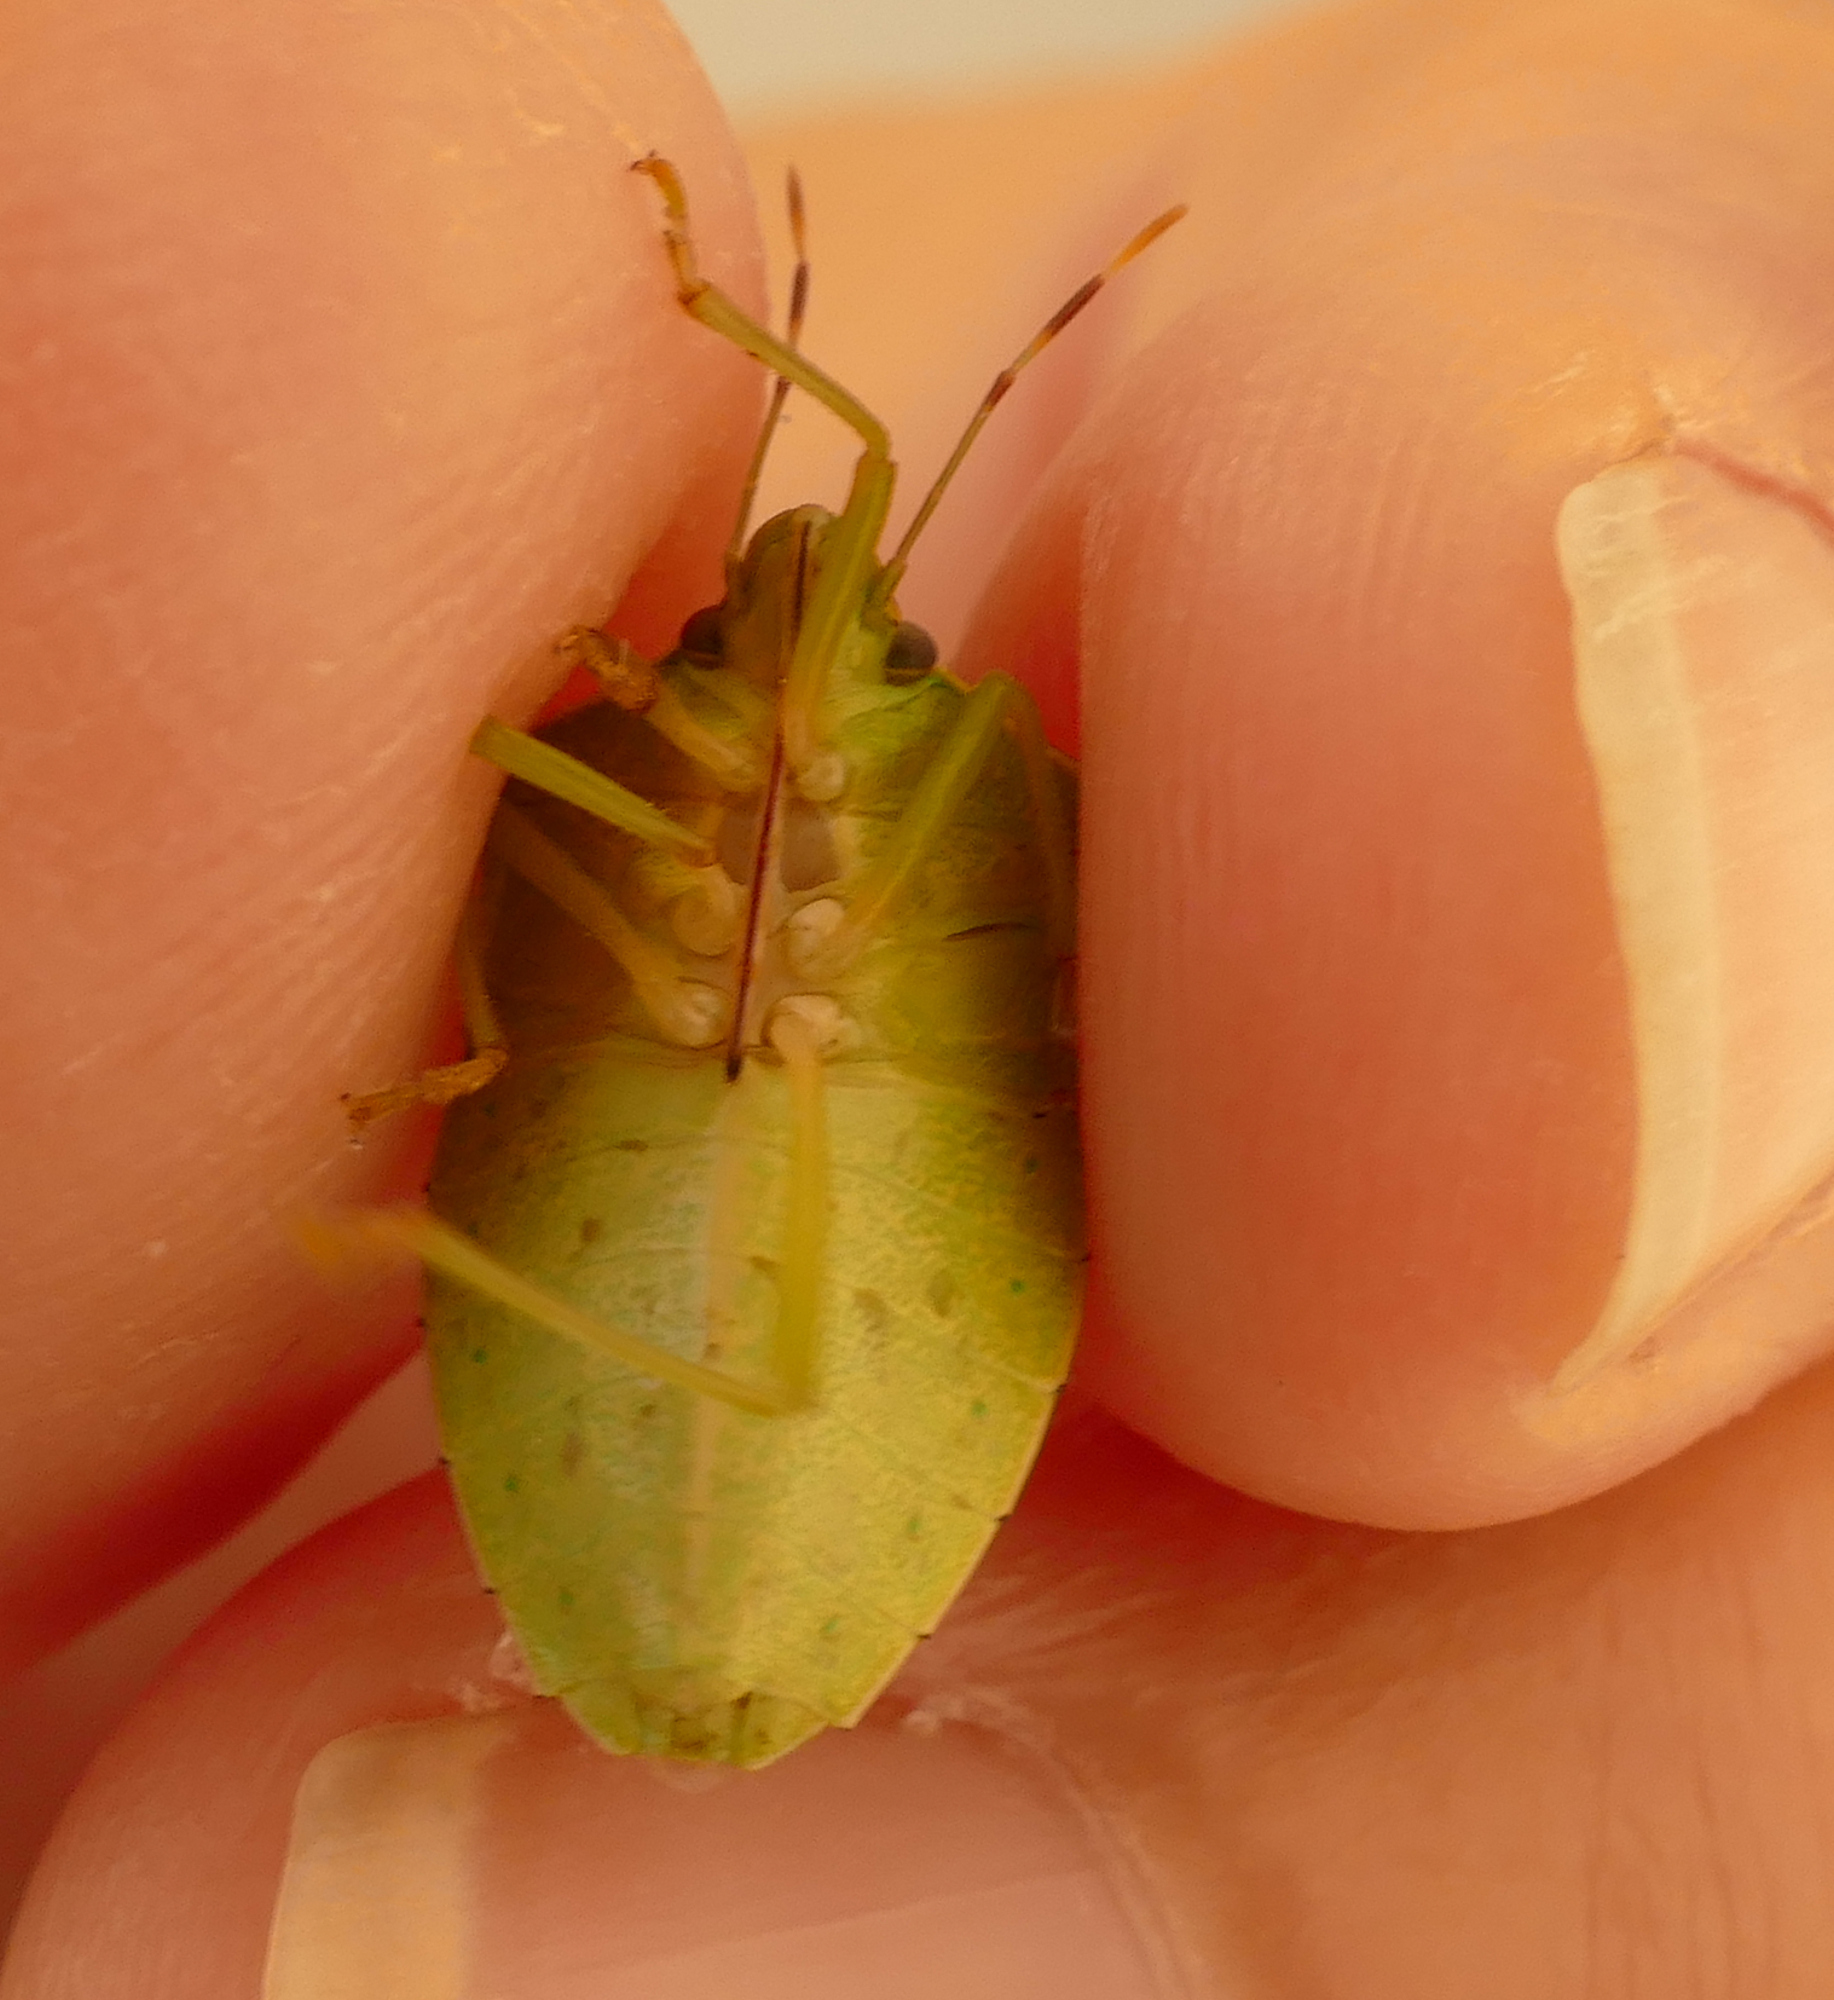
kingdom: Animalia
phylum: Arthropoda
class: Insecta
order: Hemiptera
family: Pentatomidae
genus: Nezara
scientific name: Nezara viridula
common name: Southern green stink bug
